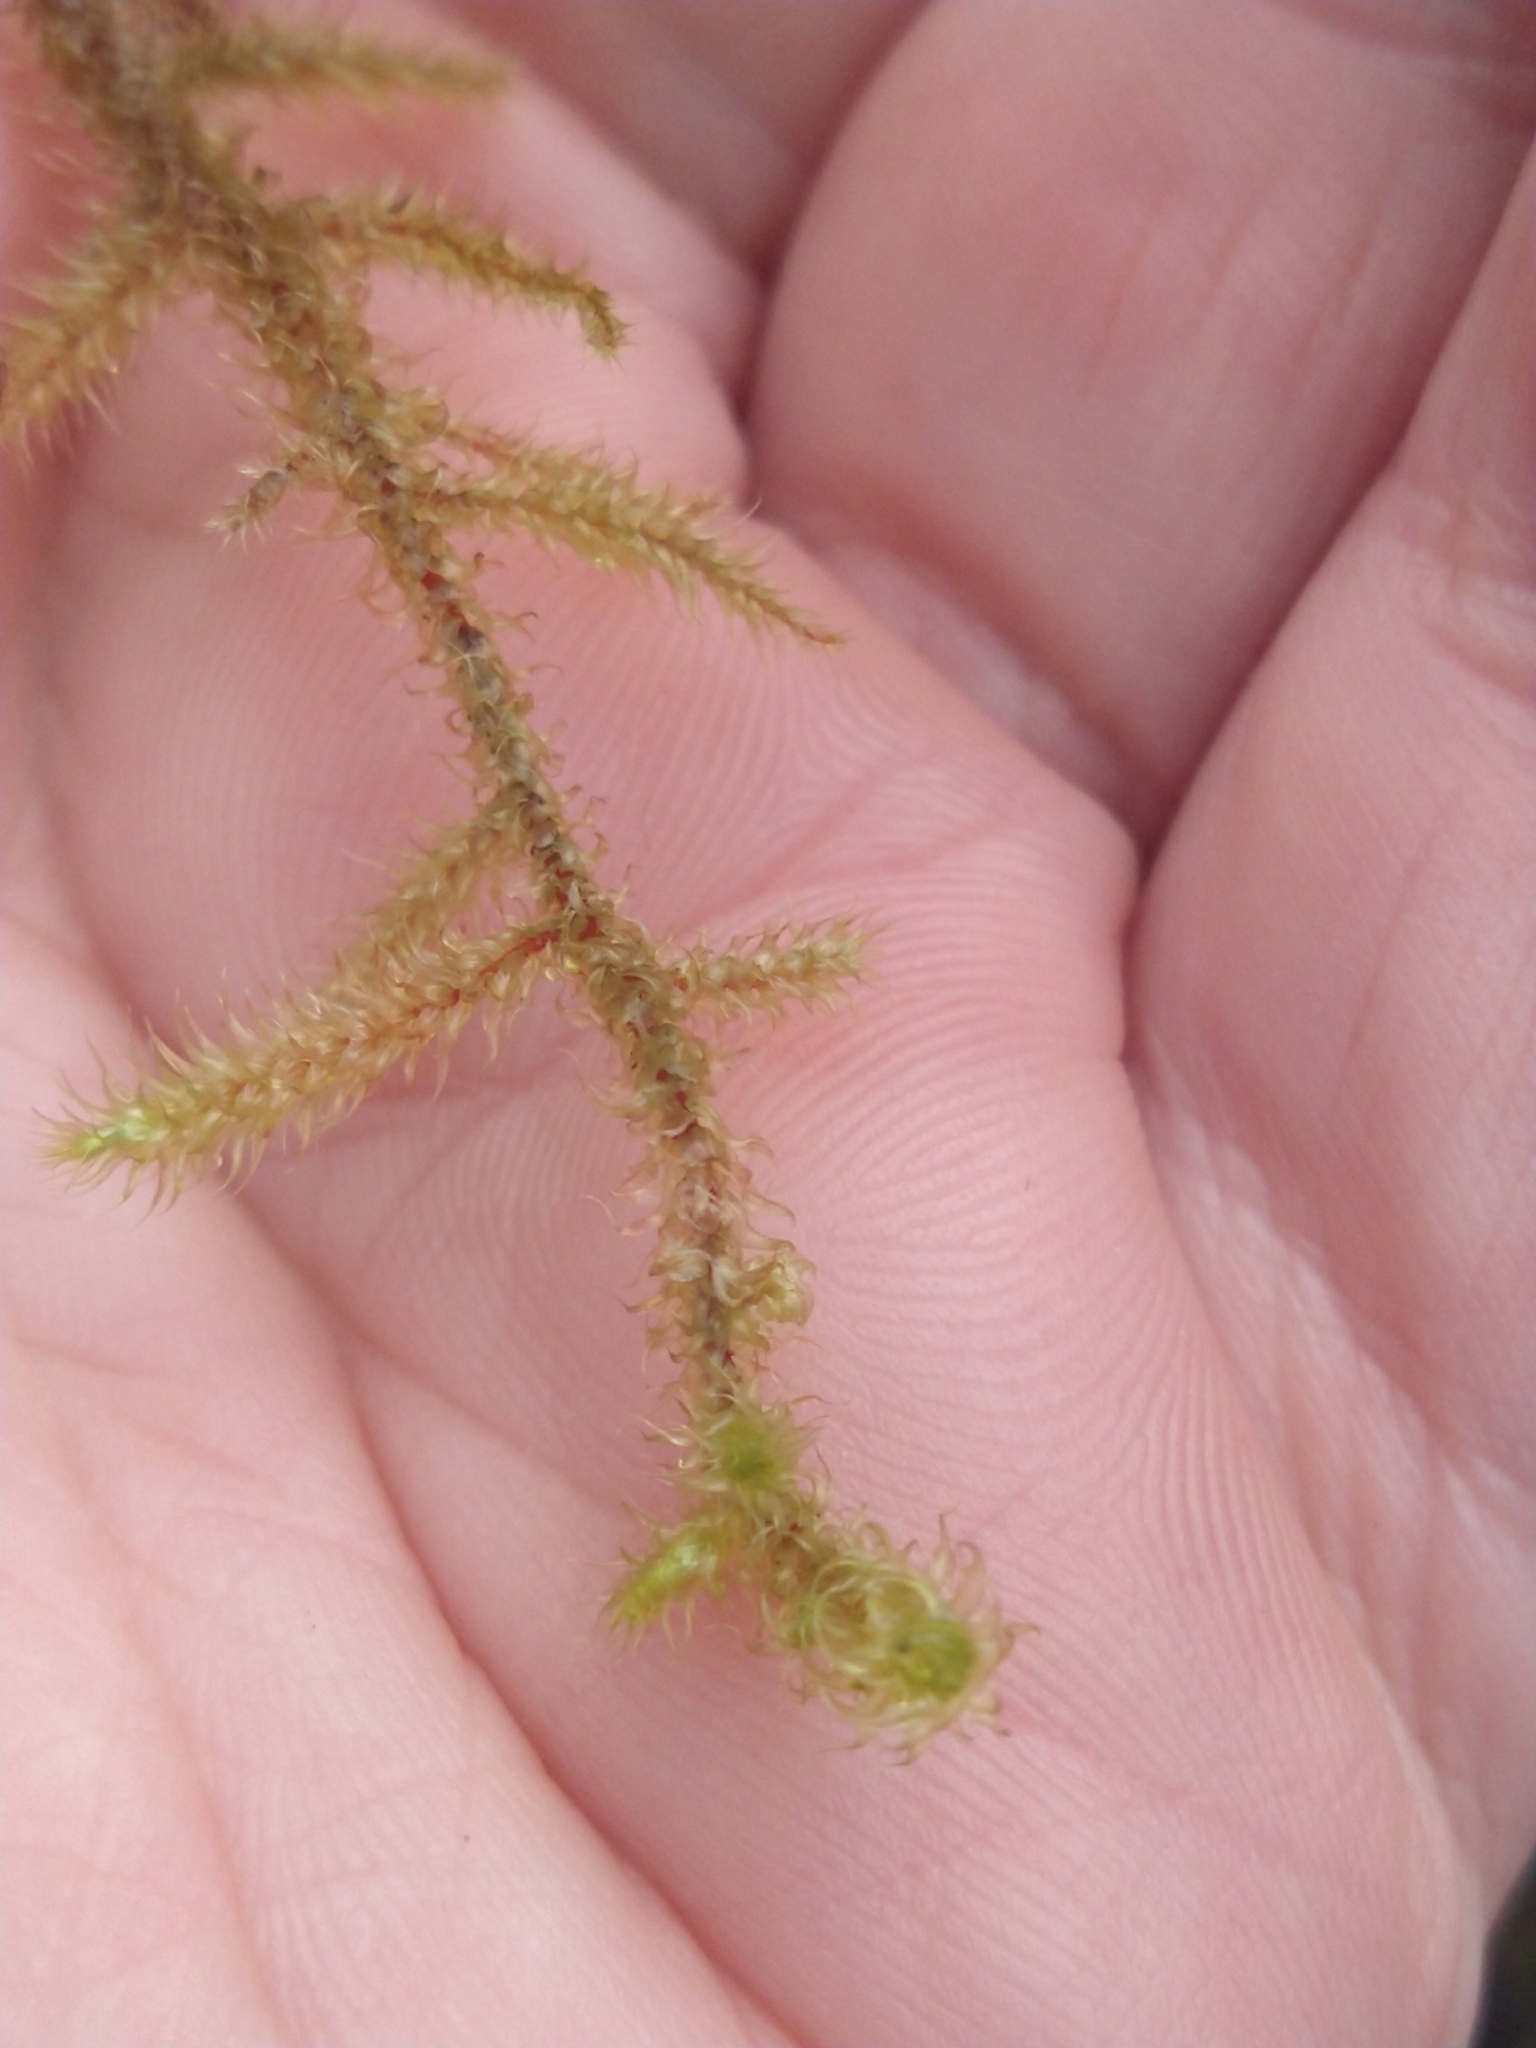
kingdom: Plantae
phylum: Bryophyta
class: Bryopsida
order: Hypnales
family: Hylocomiaceae
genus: Rhytidiadelphus
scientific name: Rhytidiadelphus loreus
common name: Lanky moss
